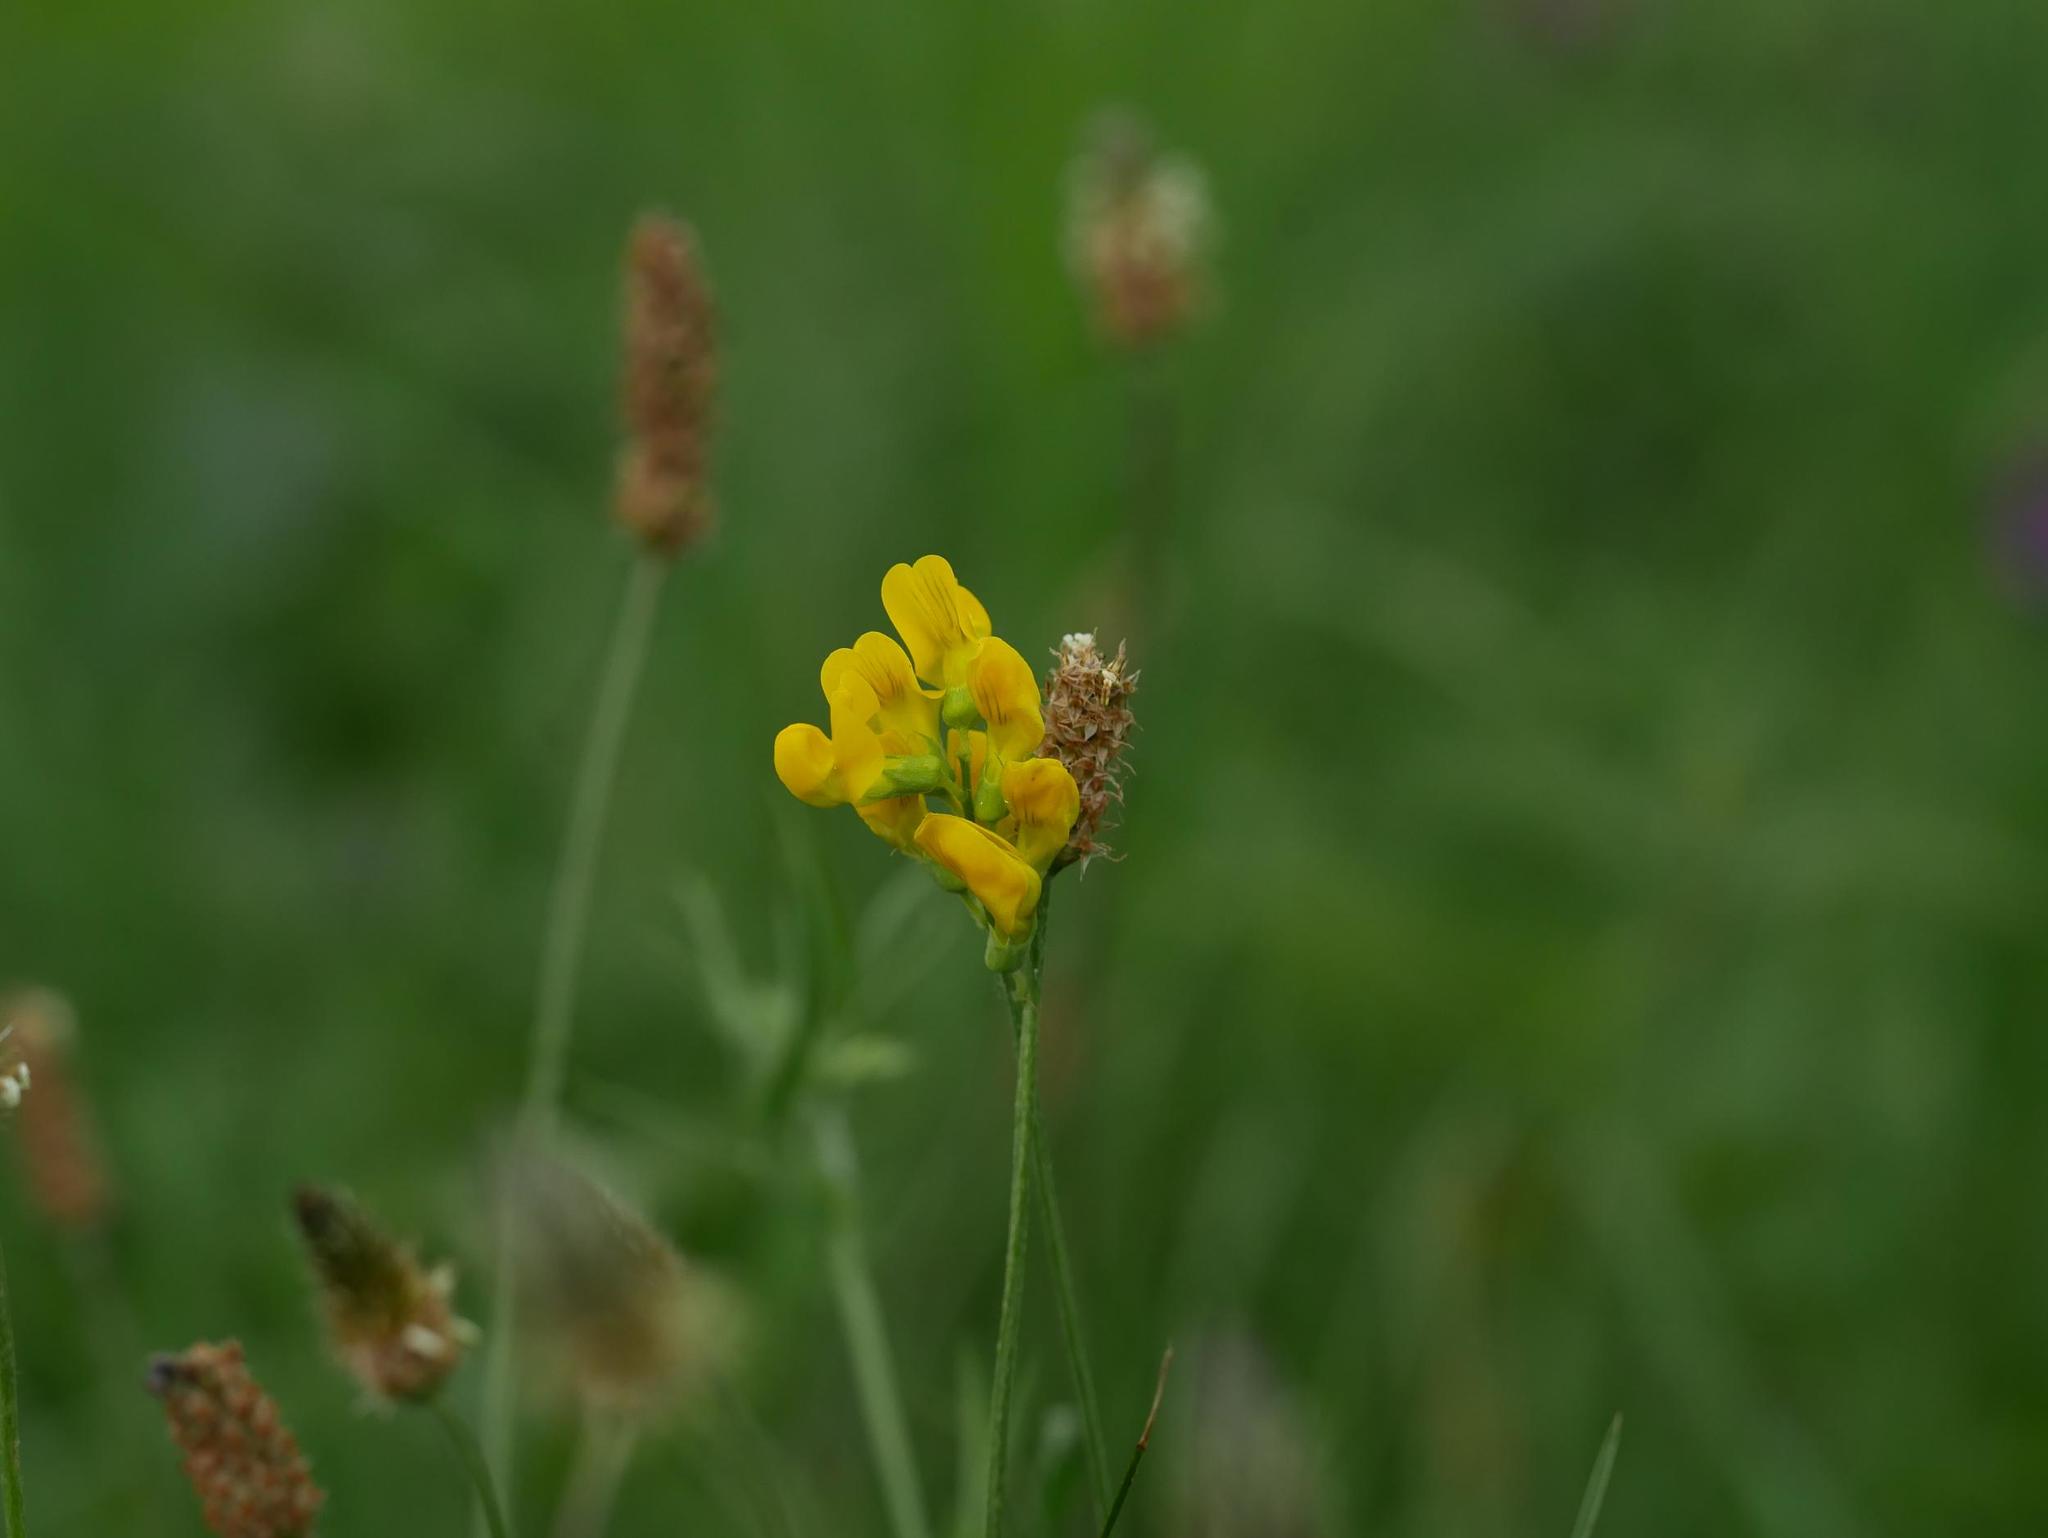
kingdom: Plantae
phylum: Tracheophyta
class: Magnoliopsida
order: Fabales
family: Fabaceae
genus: Lathyrus
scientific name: Lathyrus pratensis
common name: Meadow vetchling
